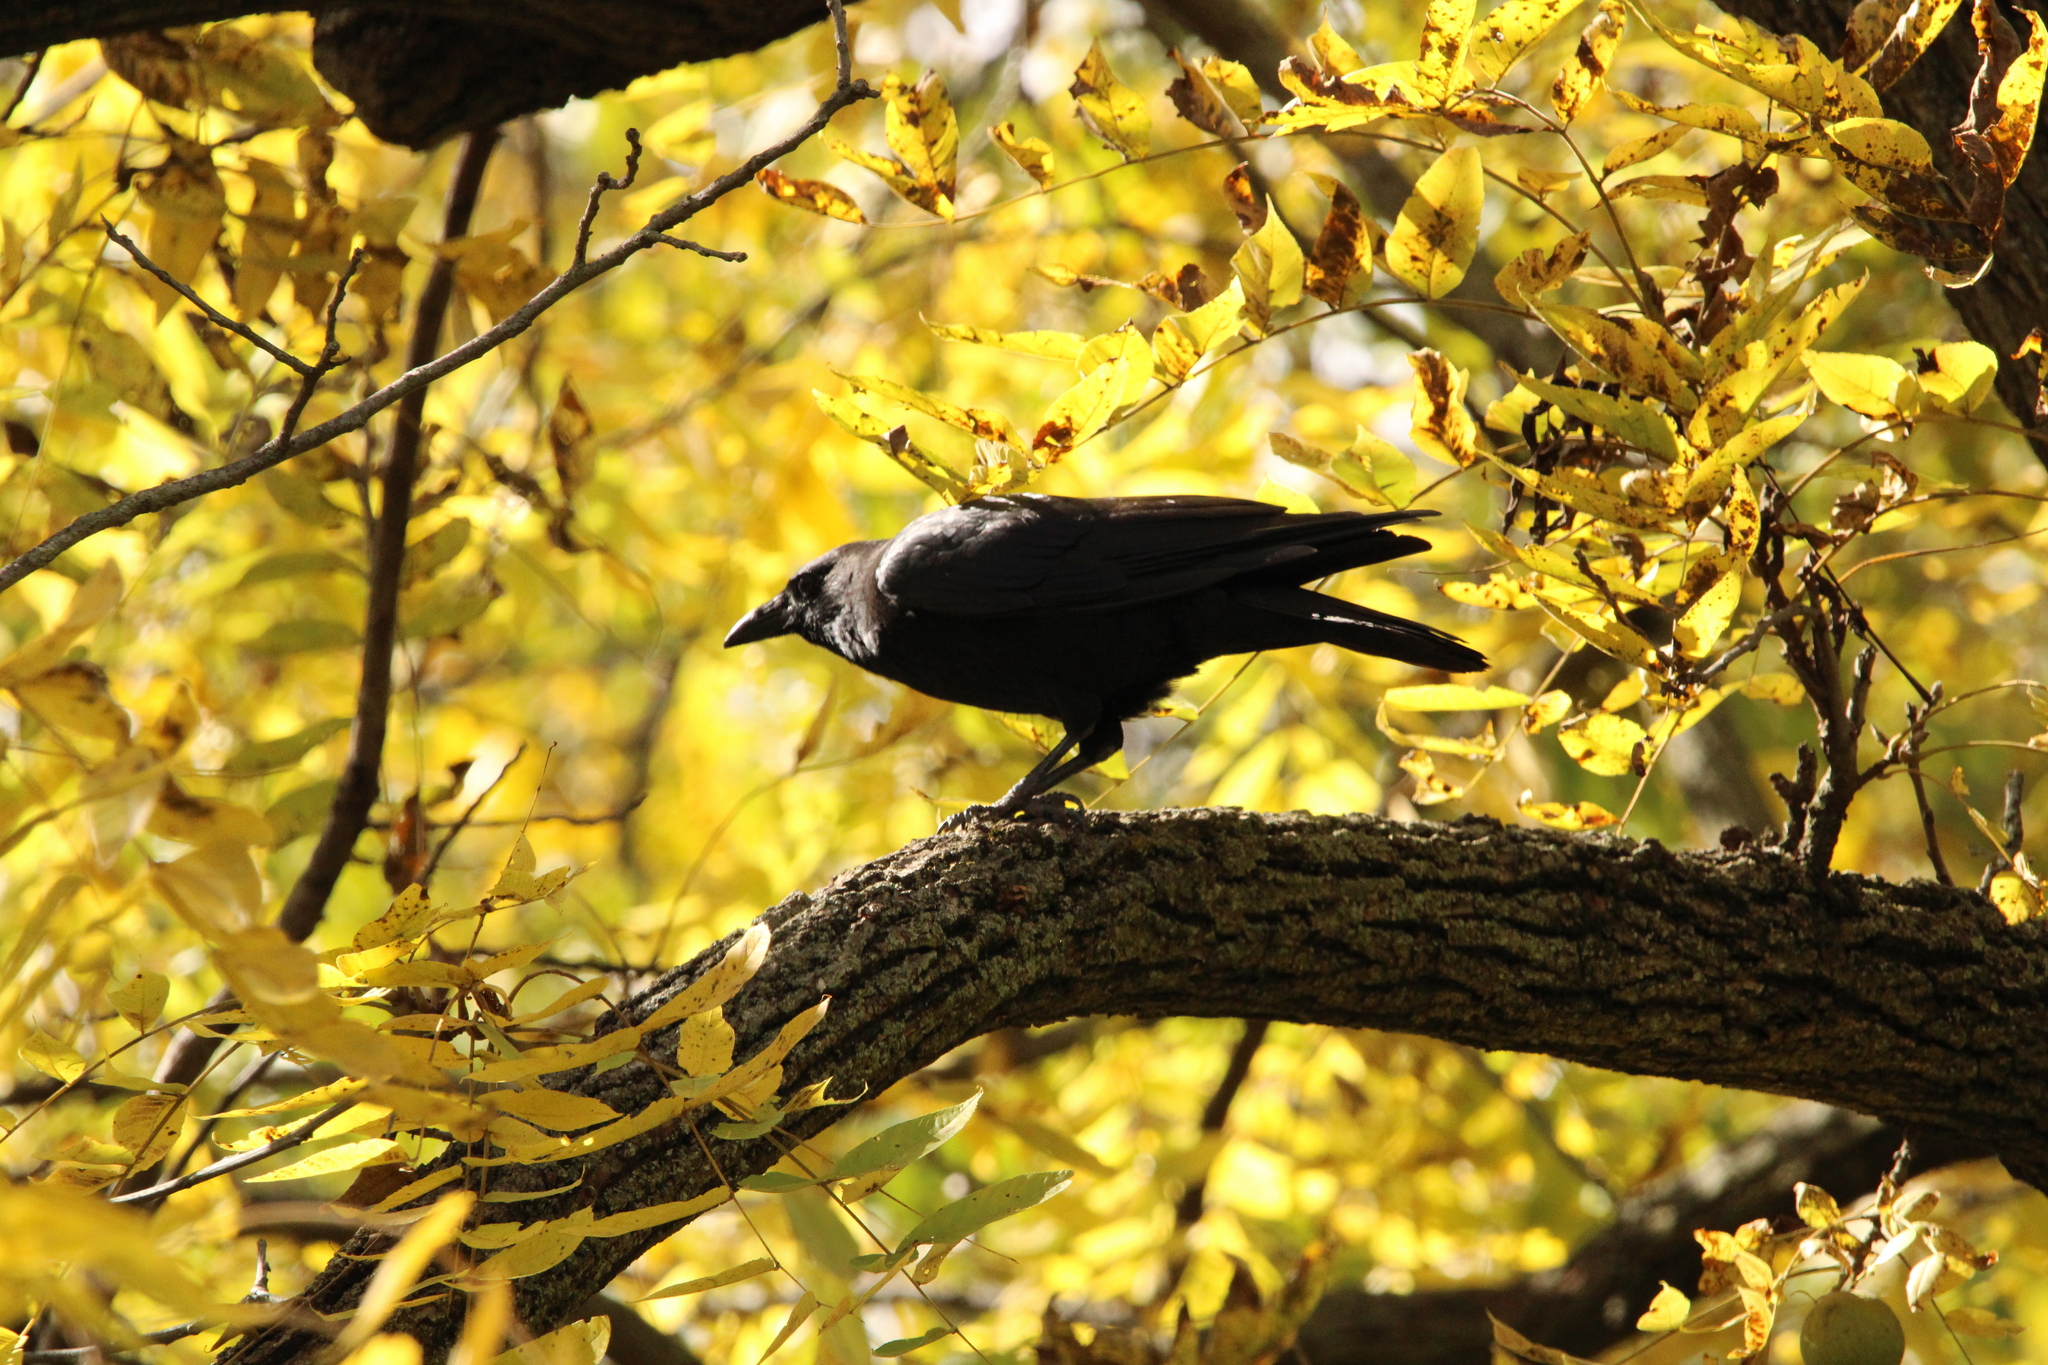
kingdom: Animalia
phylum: Chordata
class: Aves
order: Passeriformes
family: Corvidae
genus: Corvus
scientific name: Corvus brachyrhynchos
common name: American crow
